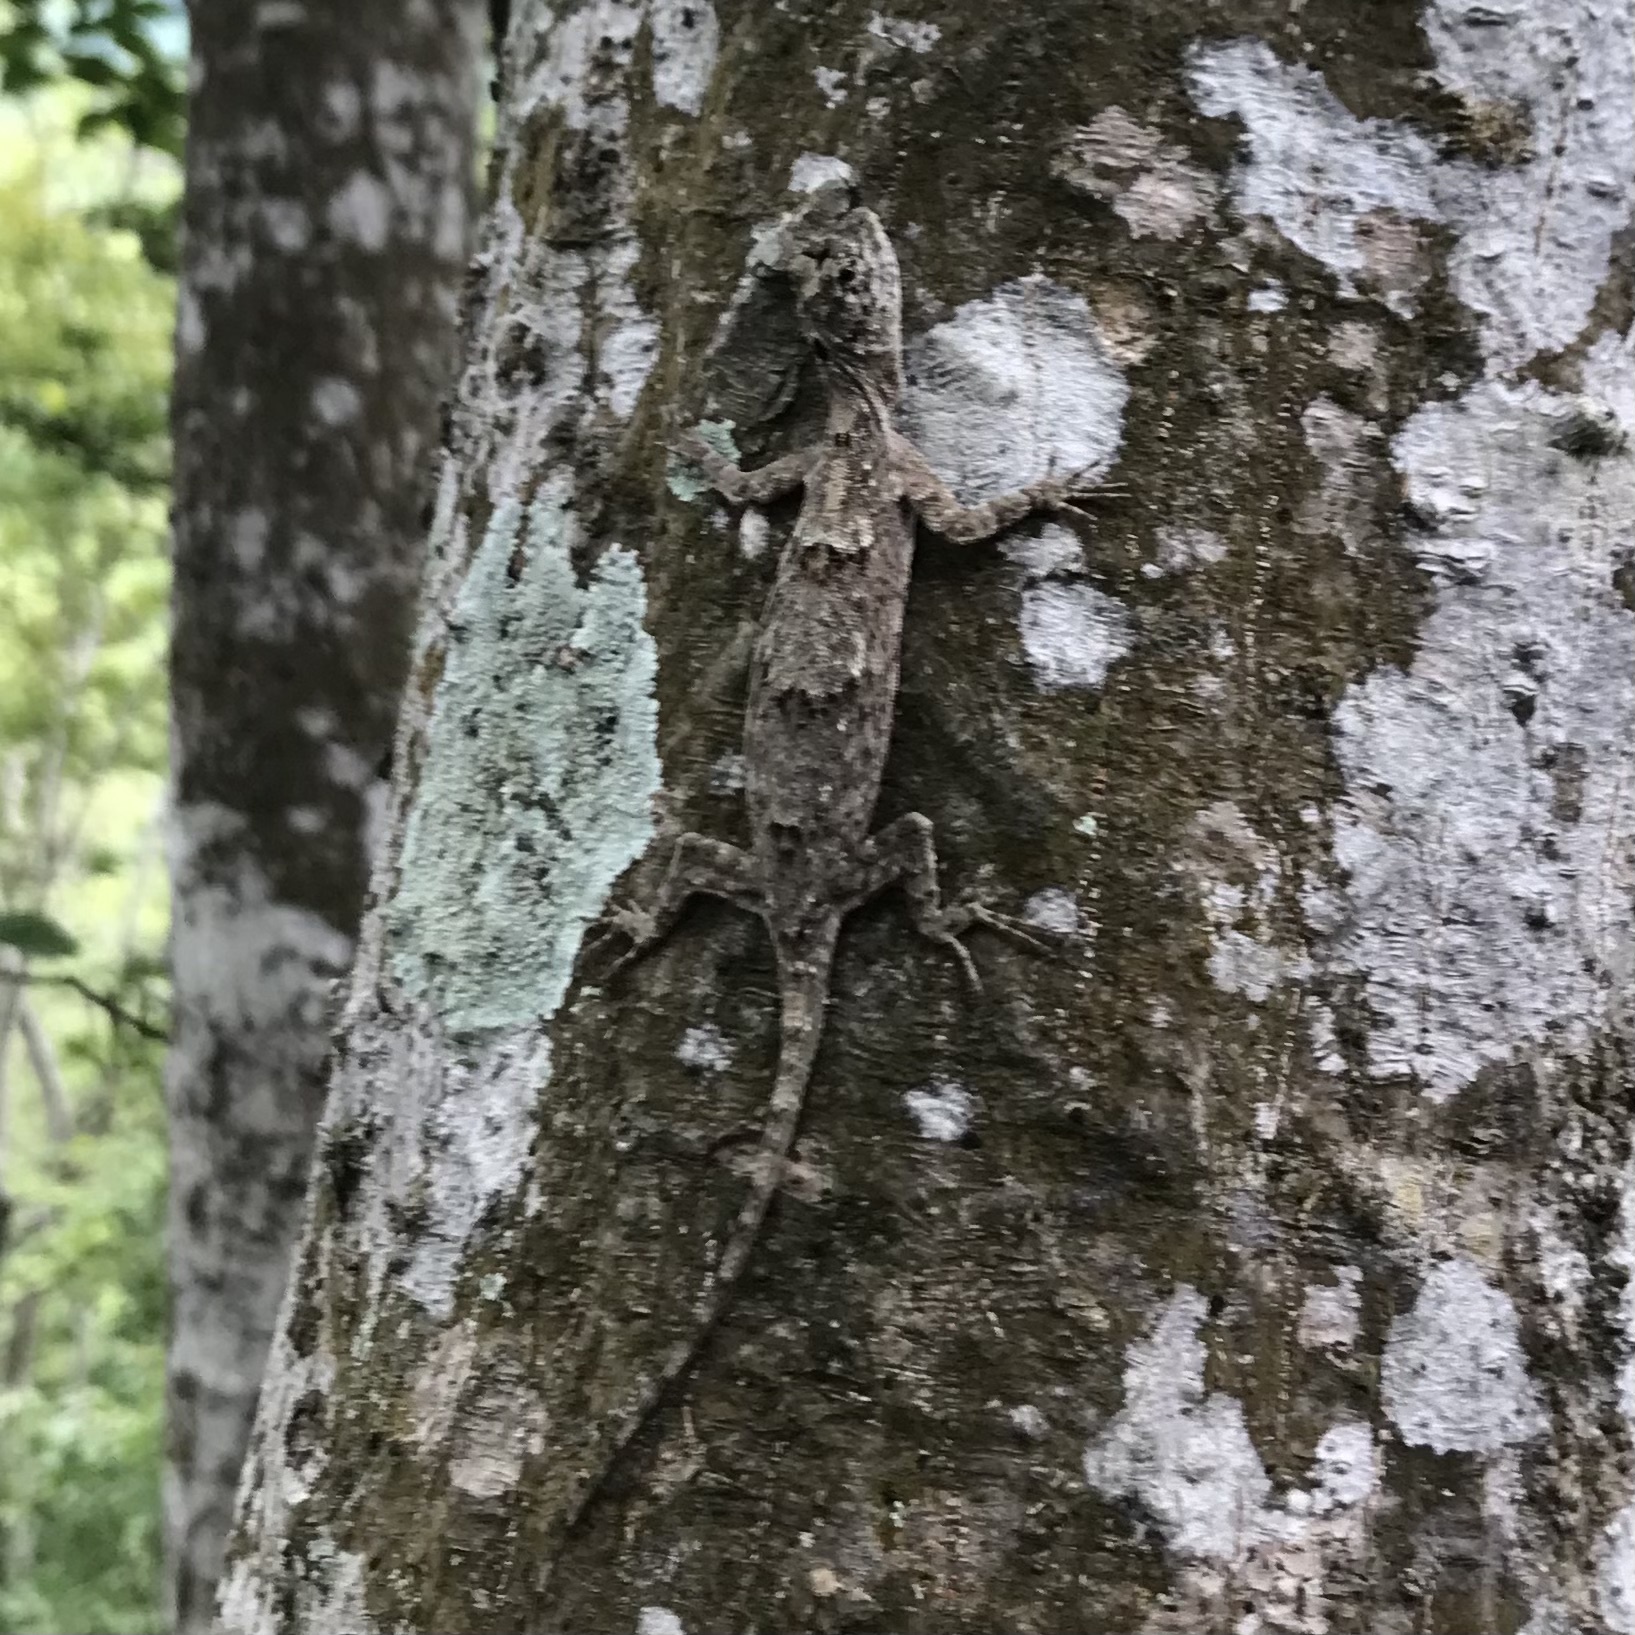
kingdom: Animalia
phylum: Chordata
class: Squamata
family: Agamidae
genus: Draco
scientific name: Draco volans
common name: Common flying dragon
